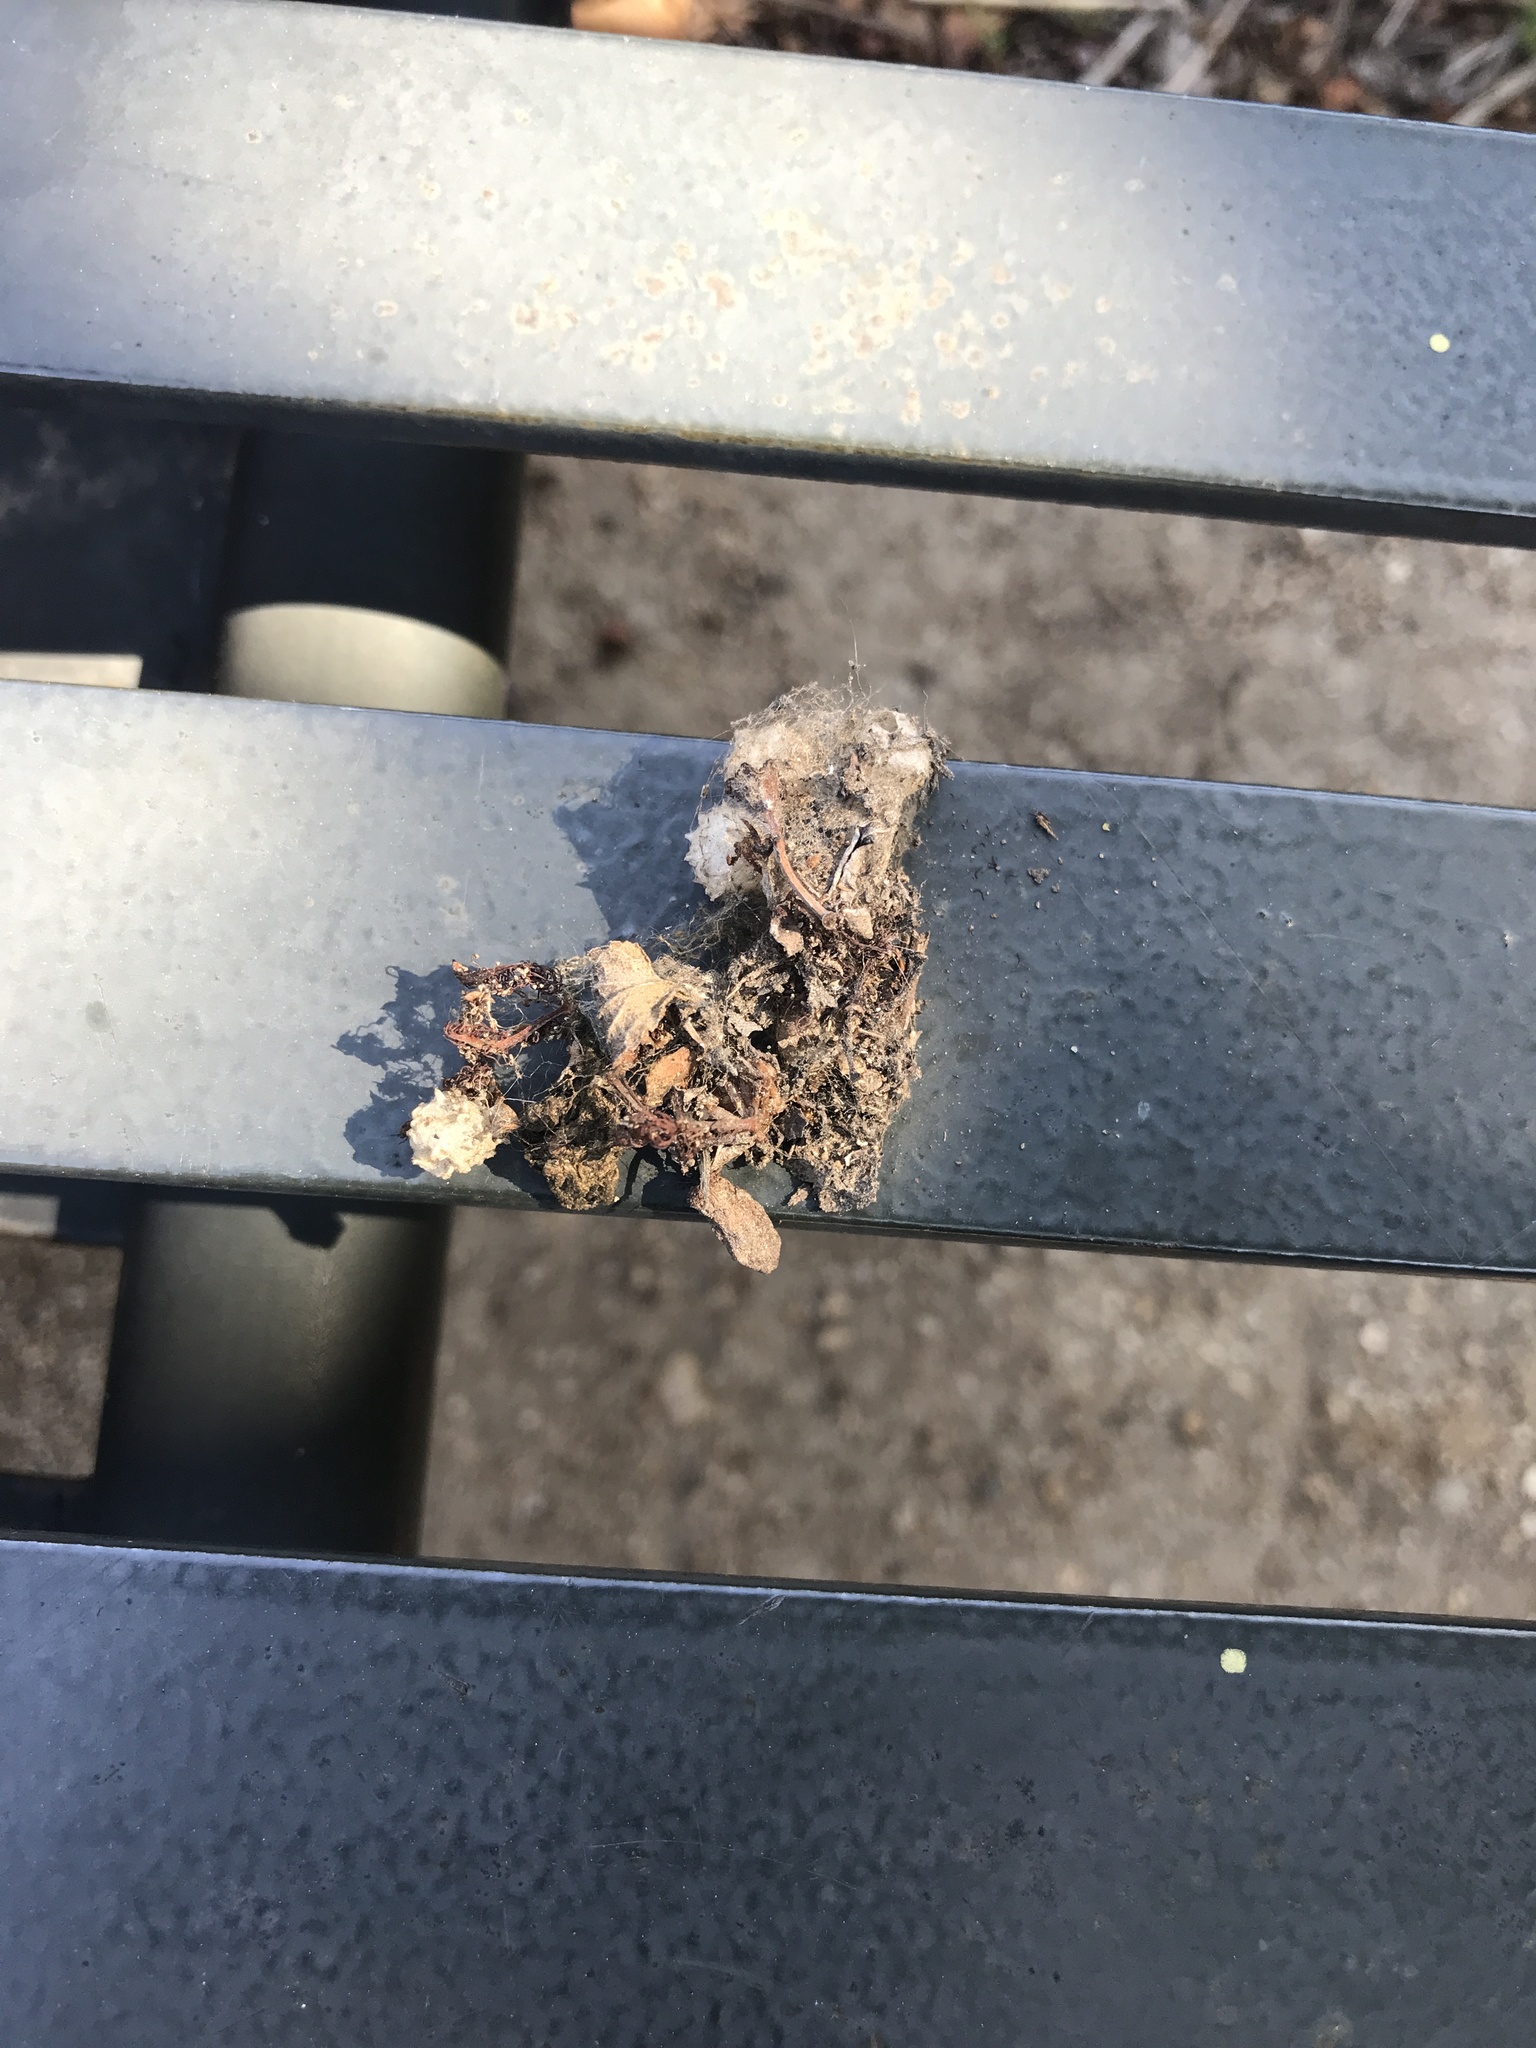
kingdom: Animalia
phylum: Arthropoda
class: Arachnida
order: Araneae
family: Theridiidae
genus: Latrodectus
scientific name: Latrodectus geometricus
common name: Brown widow spider
